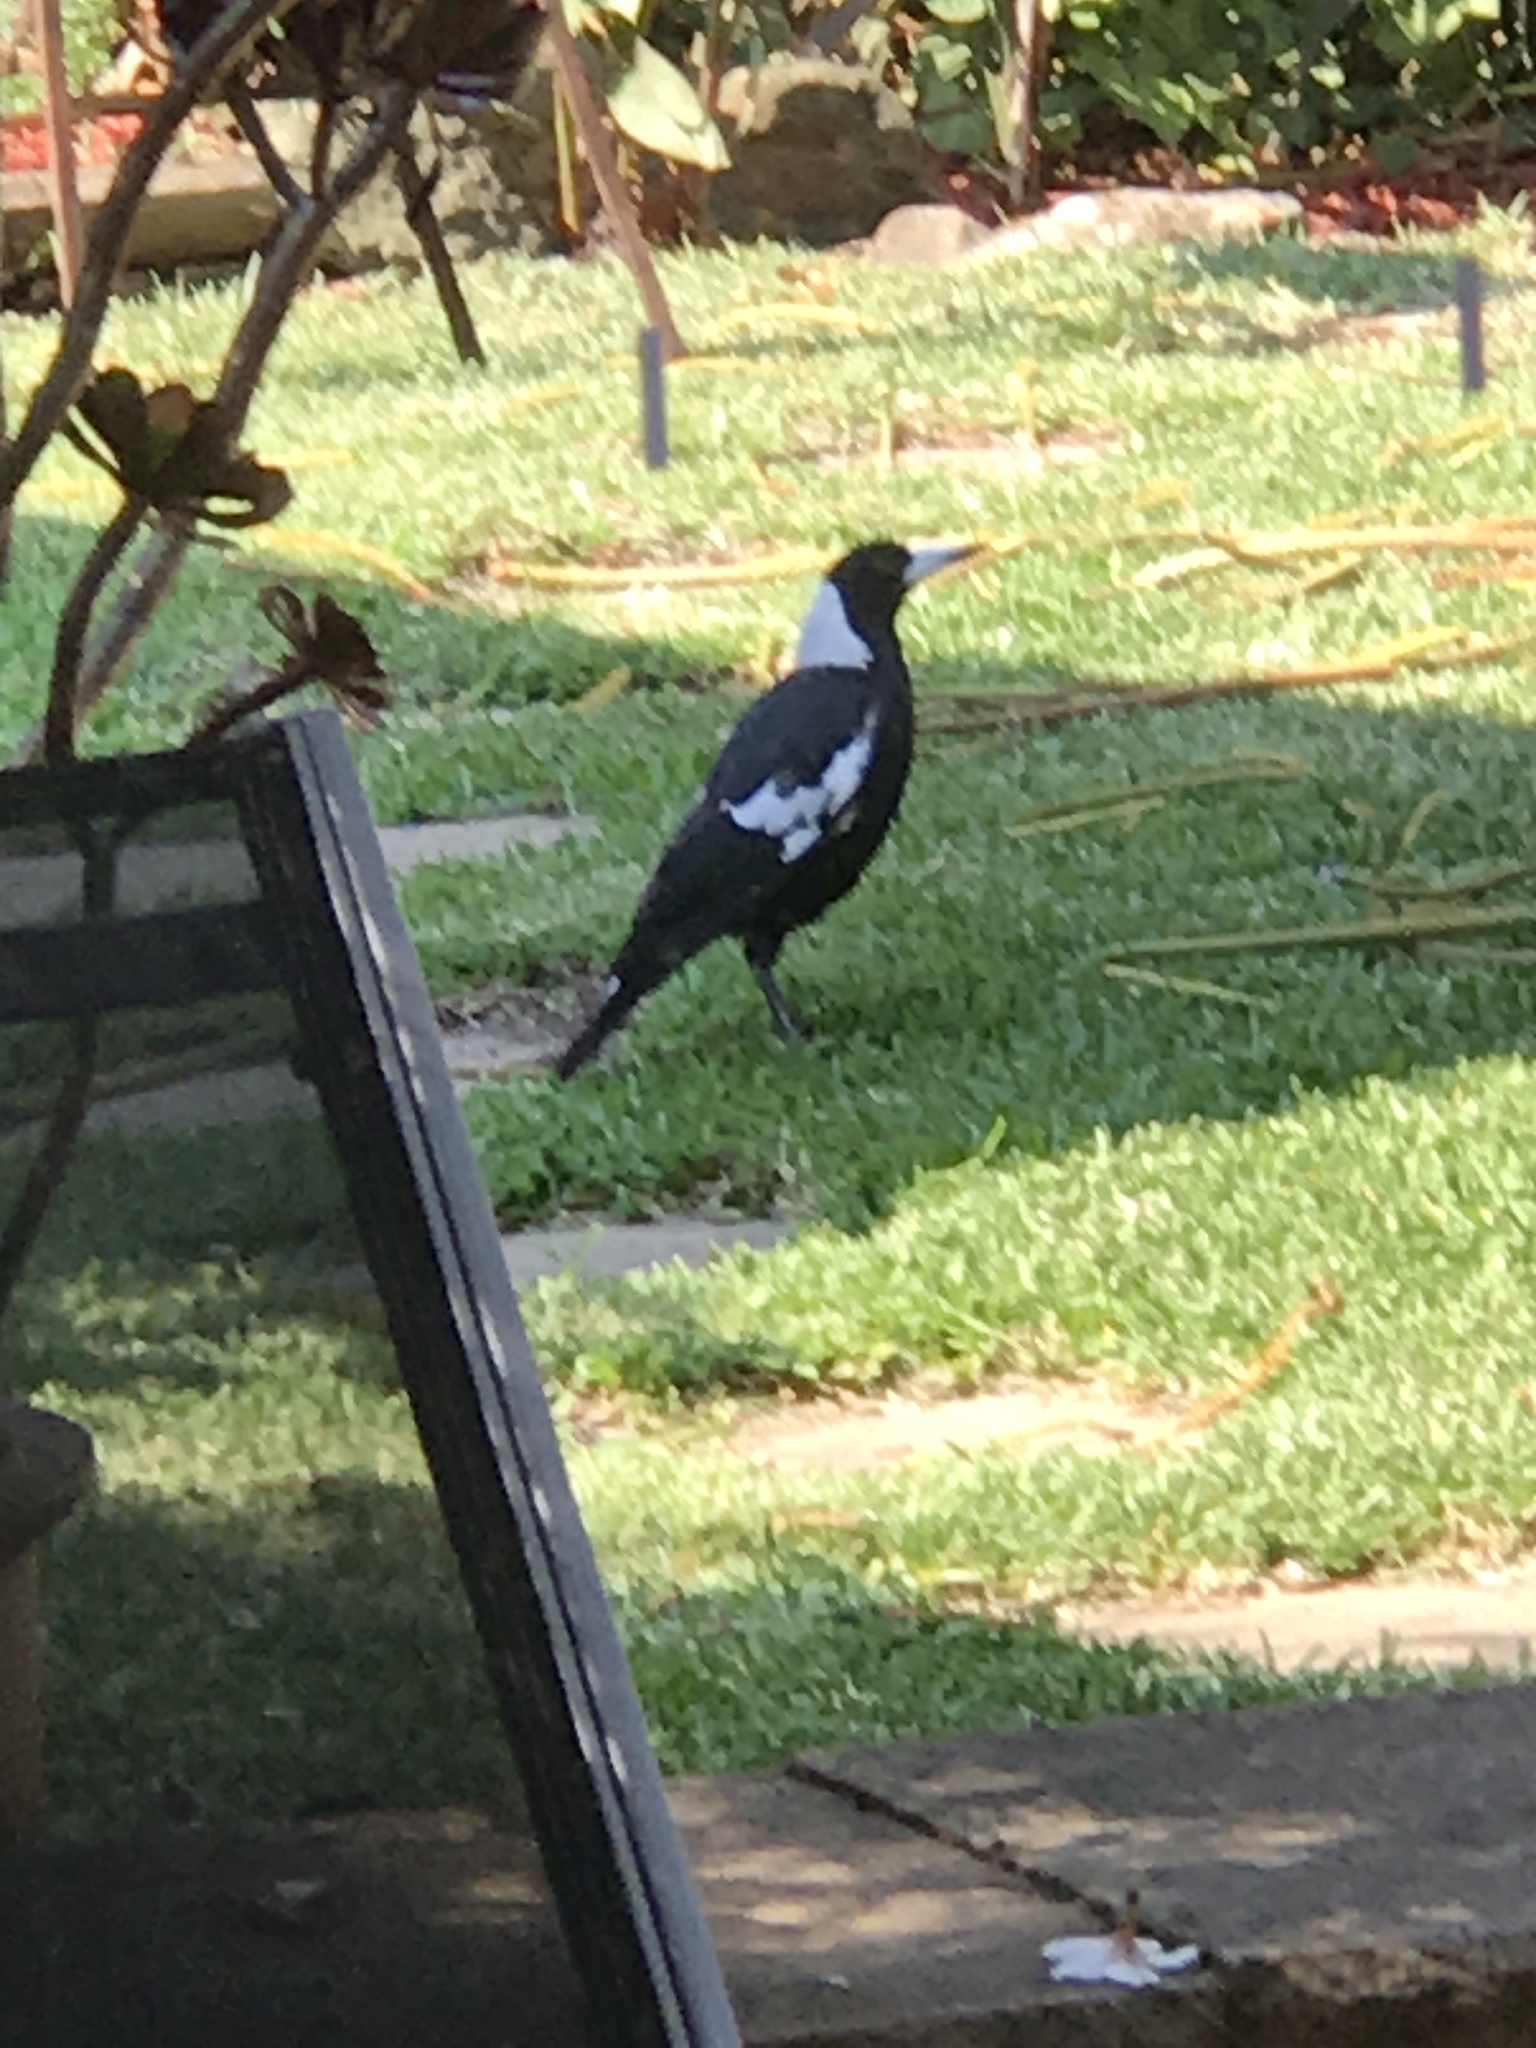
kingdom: Animalia
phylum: Chordata
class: Aves
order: Passeriformes
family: Cracticidae
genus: Gymnorhina
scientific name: Gymnorhina tibicen
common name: Australian magpie
